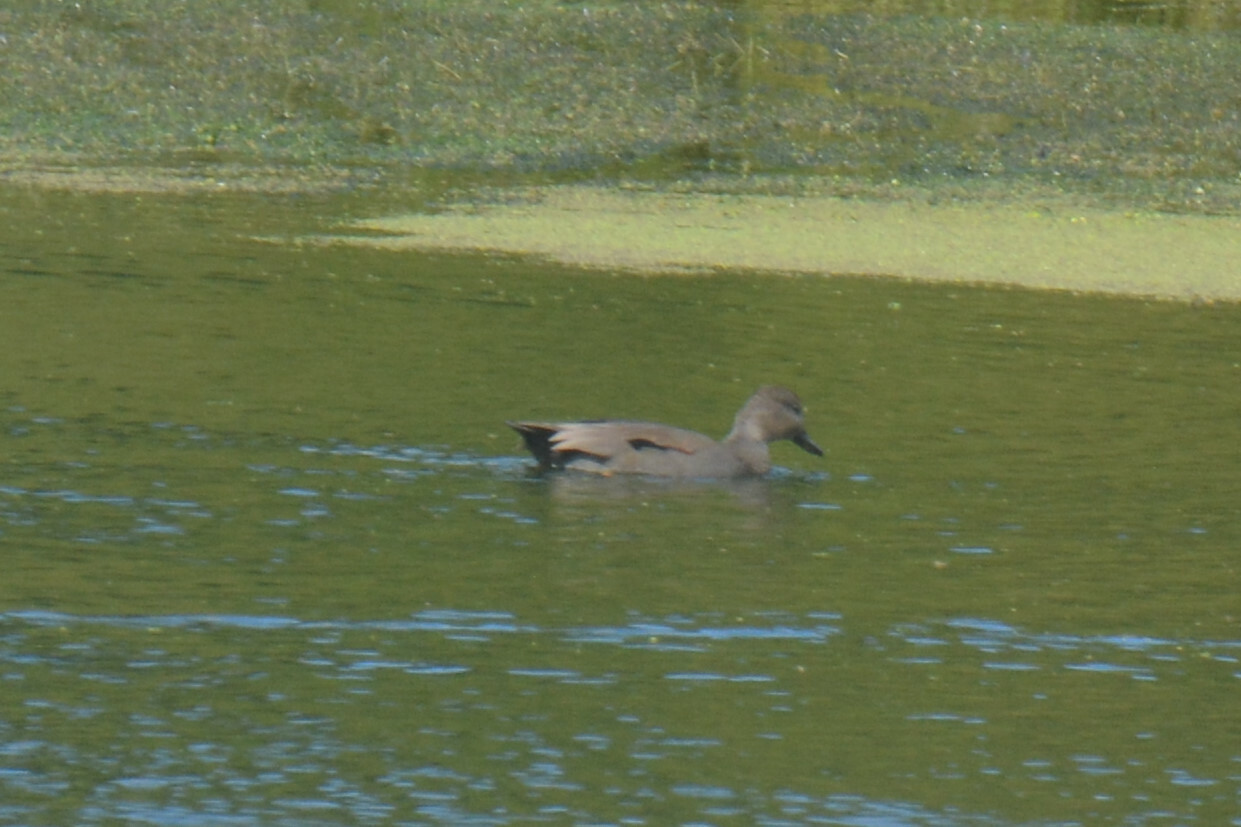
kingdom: Animalia
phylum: Chordata
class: Aves
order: Anseriformes
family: Anatidae
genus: Mareca
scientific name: Mareca strepera
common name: Gadwall
